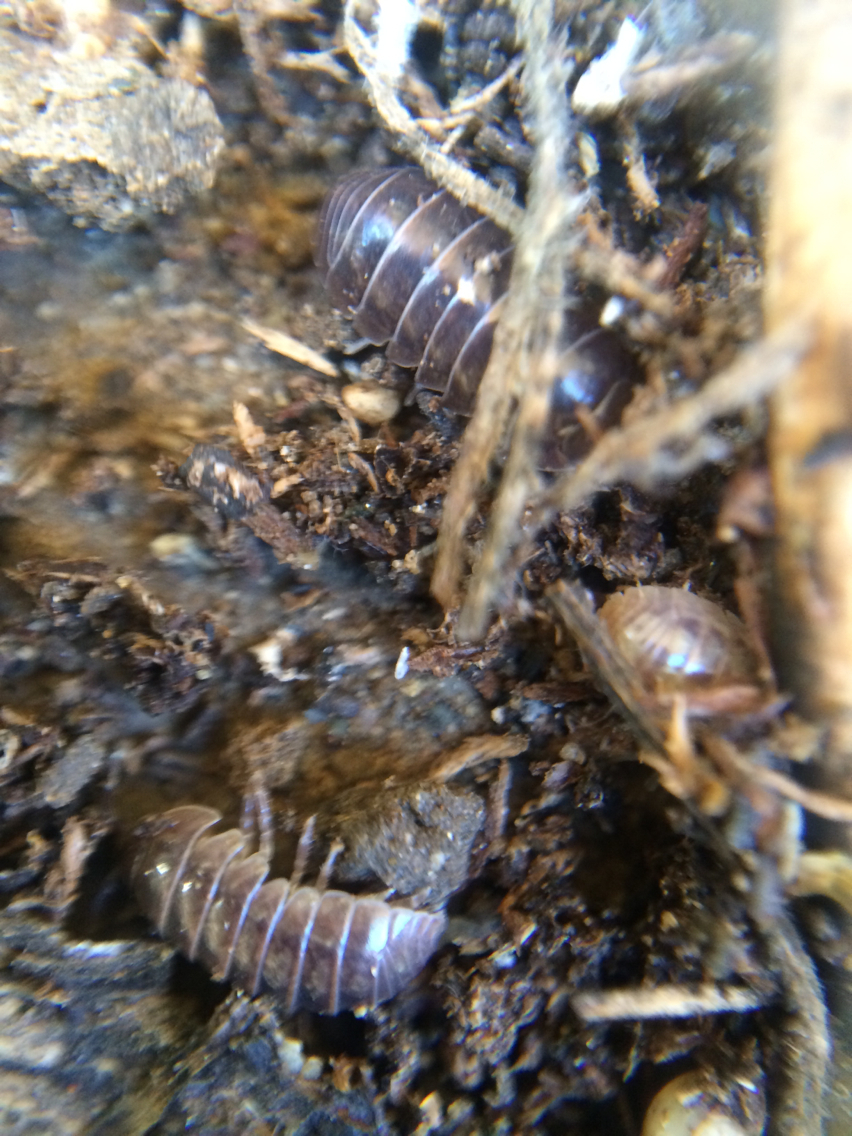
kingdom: Animalia
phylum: Arthropoda
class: Malacostraca
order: Isopoda
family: Armadillidiidae
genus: Armadillidium
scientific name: Armadillidium vulgare
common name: Common pill woodlouse
